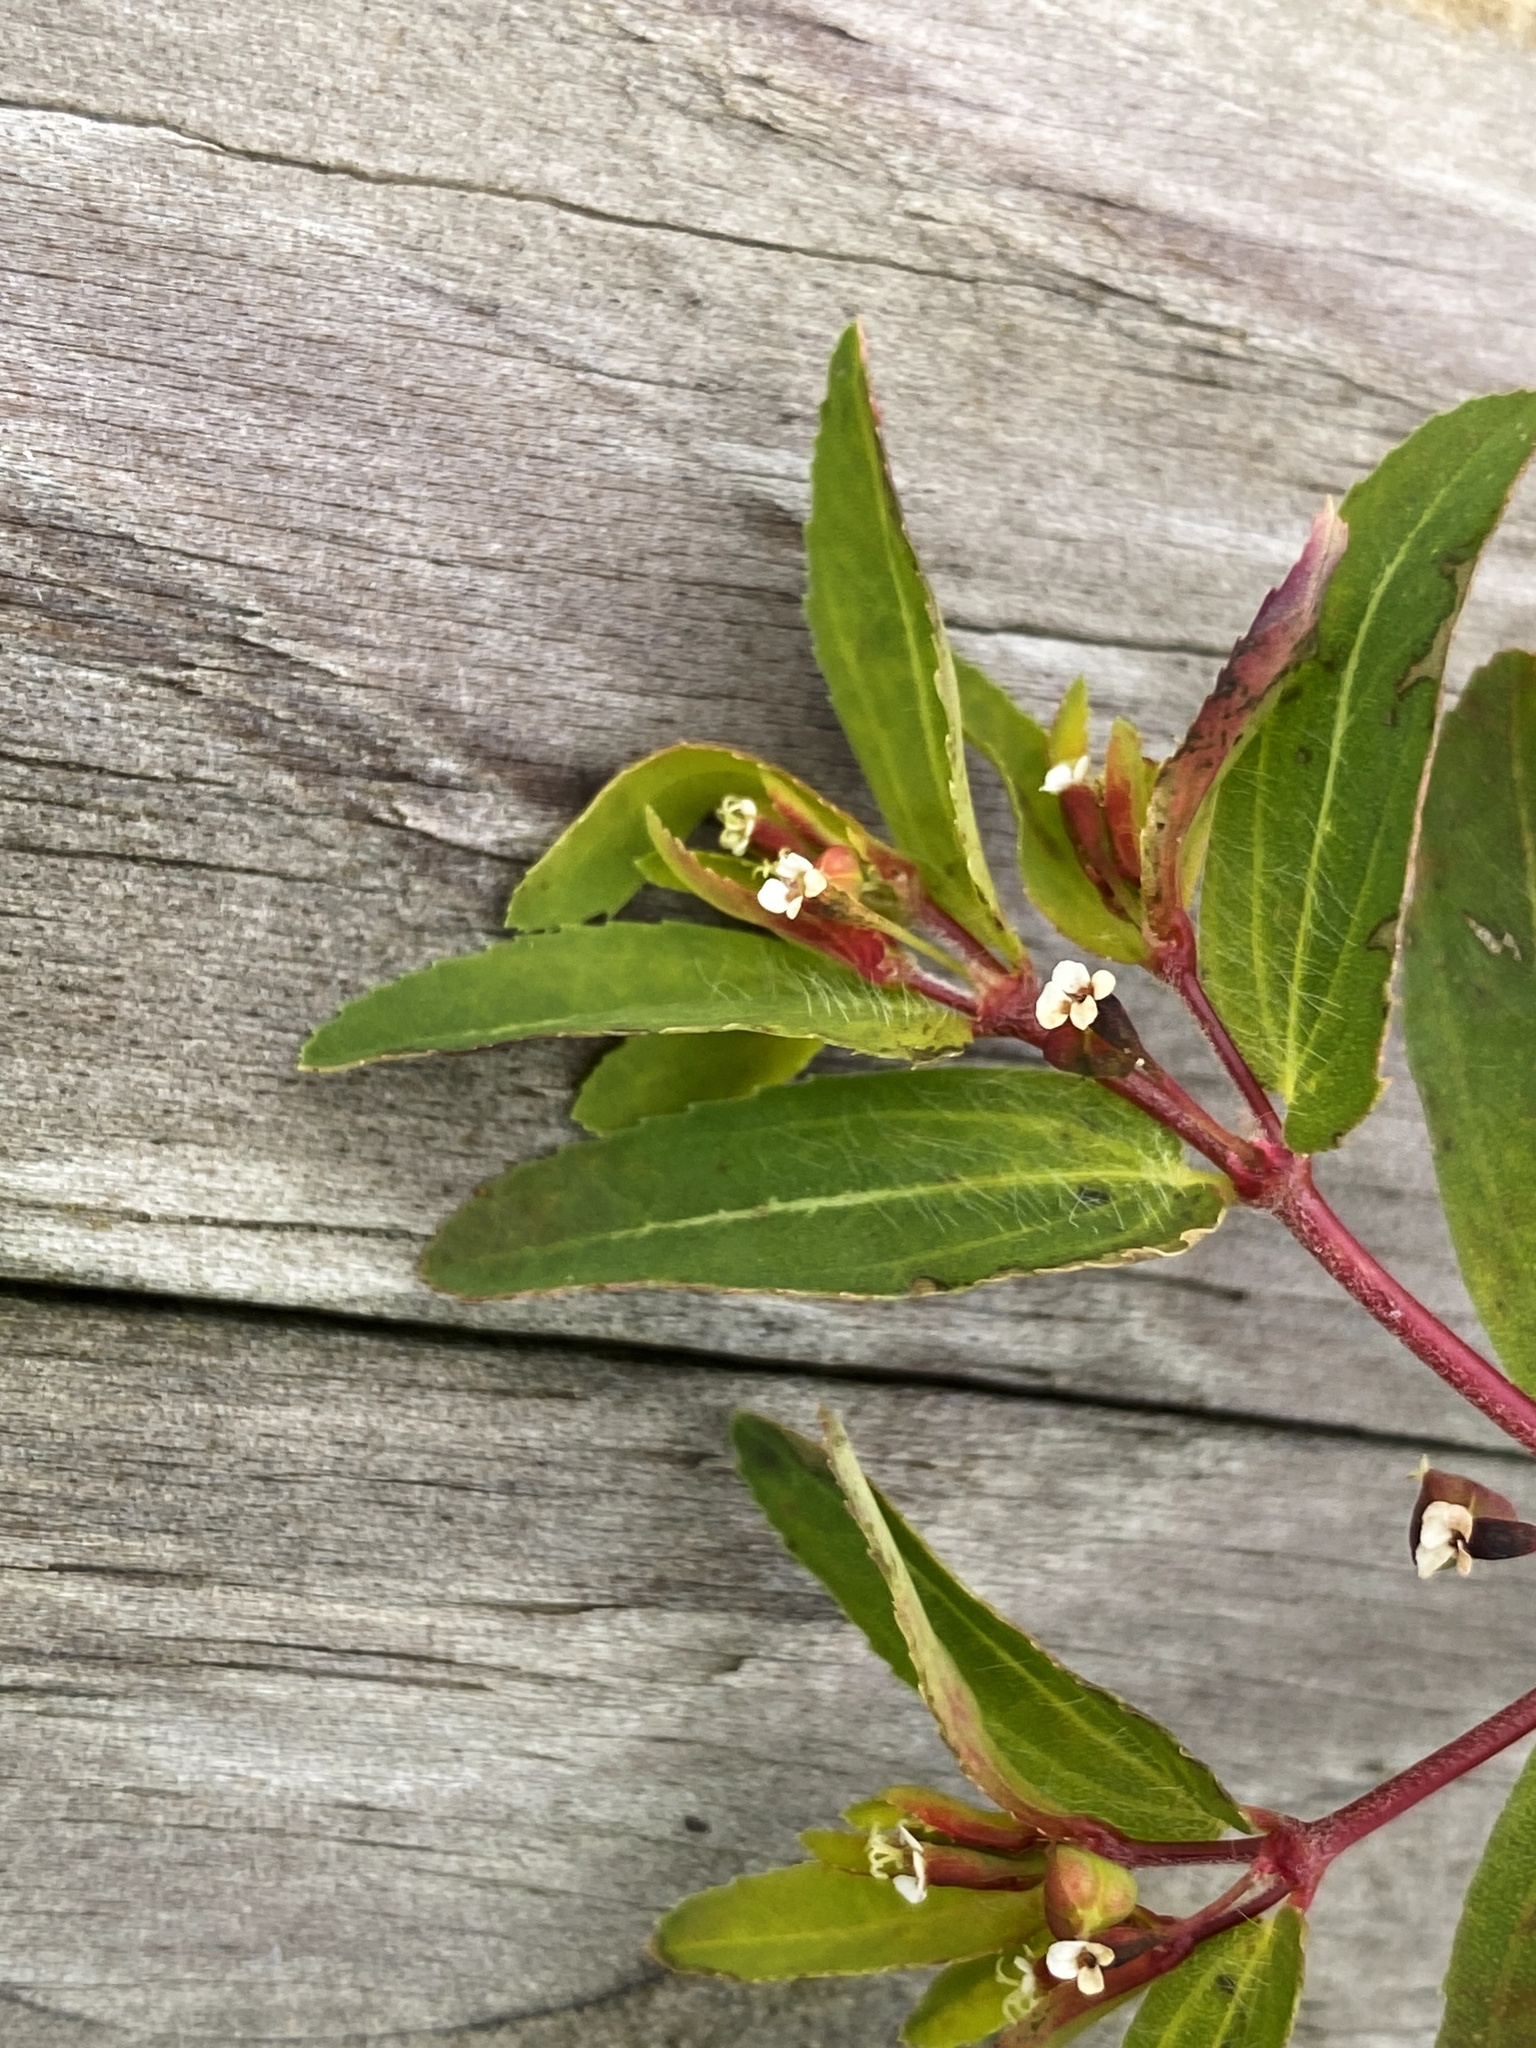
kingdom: Plantae
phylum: Tracheophyta
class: Magnoliopsida
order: Malpighiales
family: Euphorbiaceae
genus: Euphorbia
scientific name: Euphorbia nutans
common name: Eyebane
